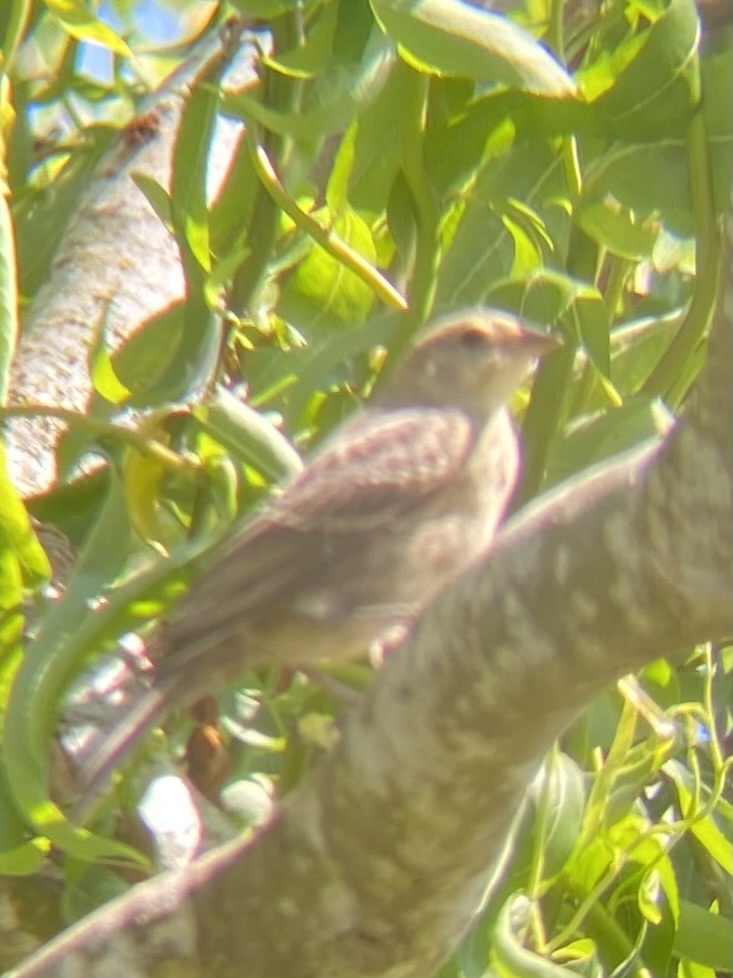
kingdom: Animalia
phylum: Chordata
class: Aves
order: Passeriformes
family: Icteridae
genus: Molothrus
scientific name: Molothrus ater
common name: Brown-headed cowbird
